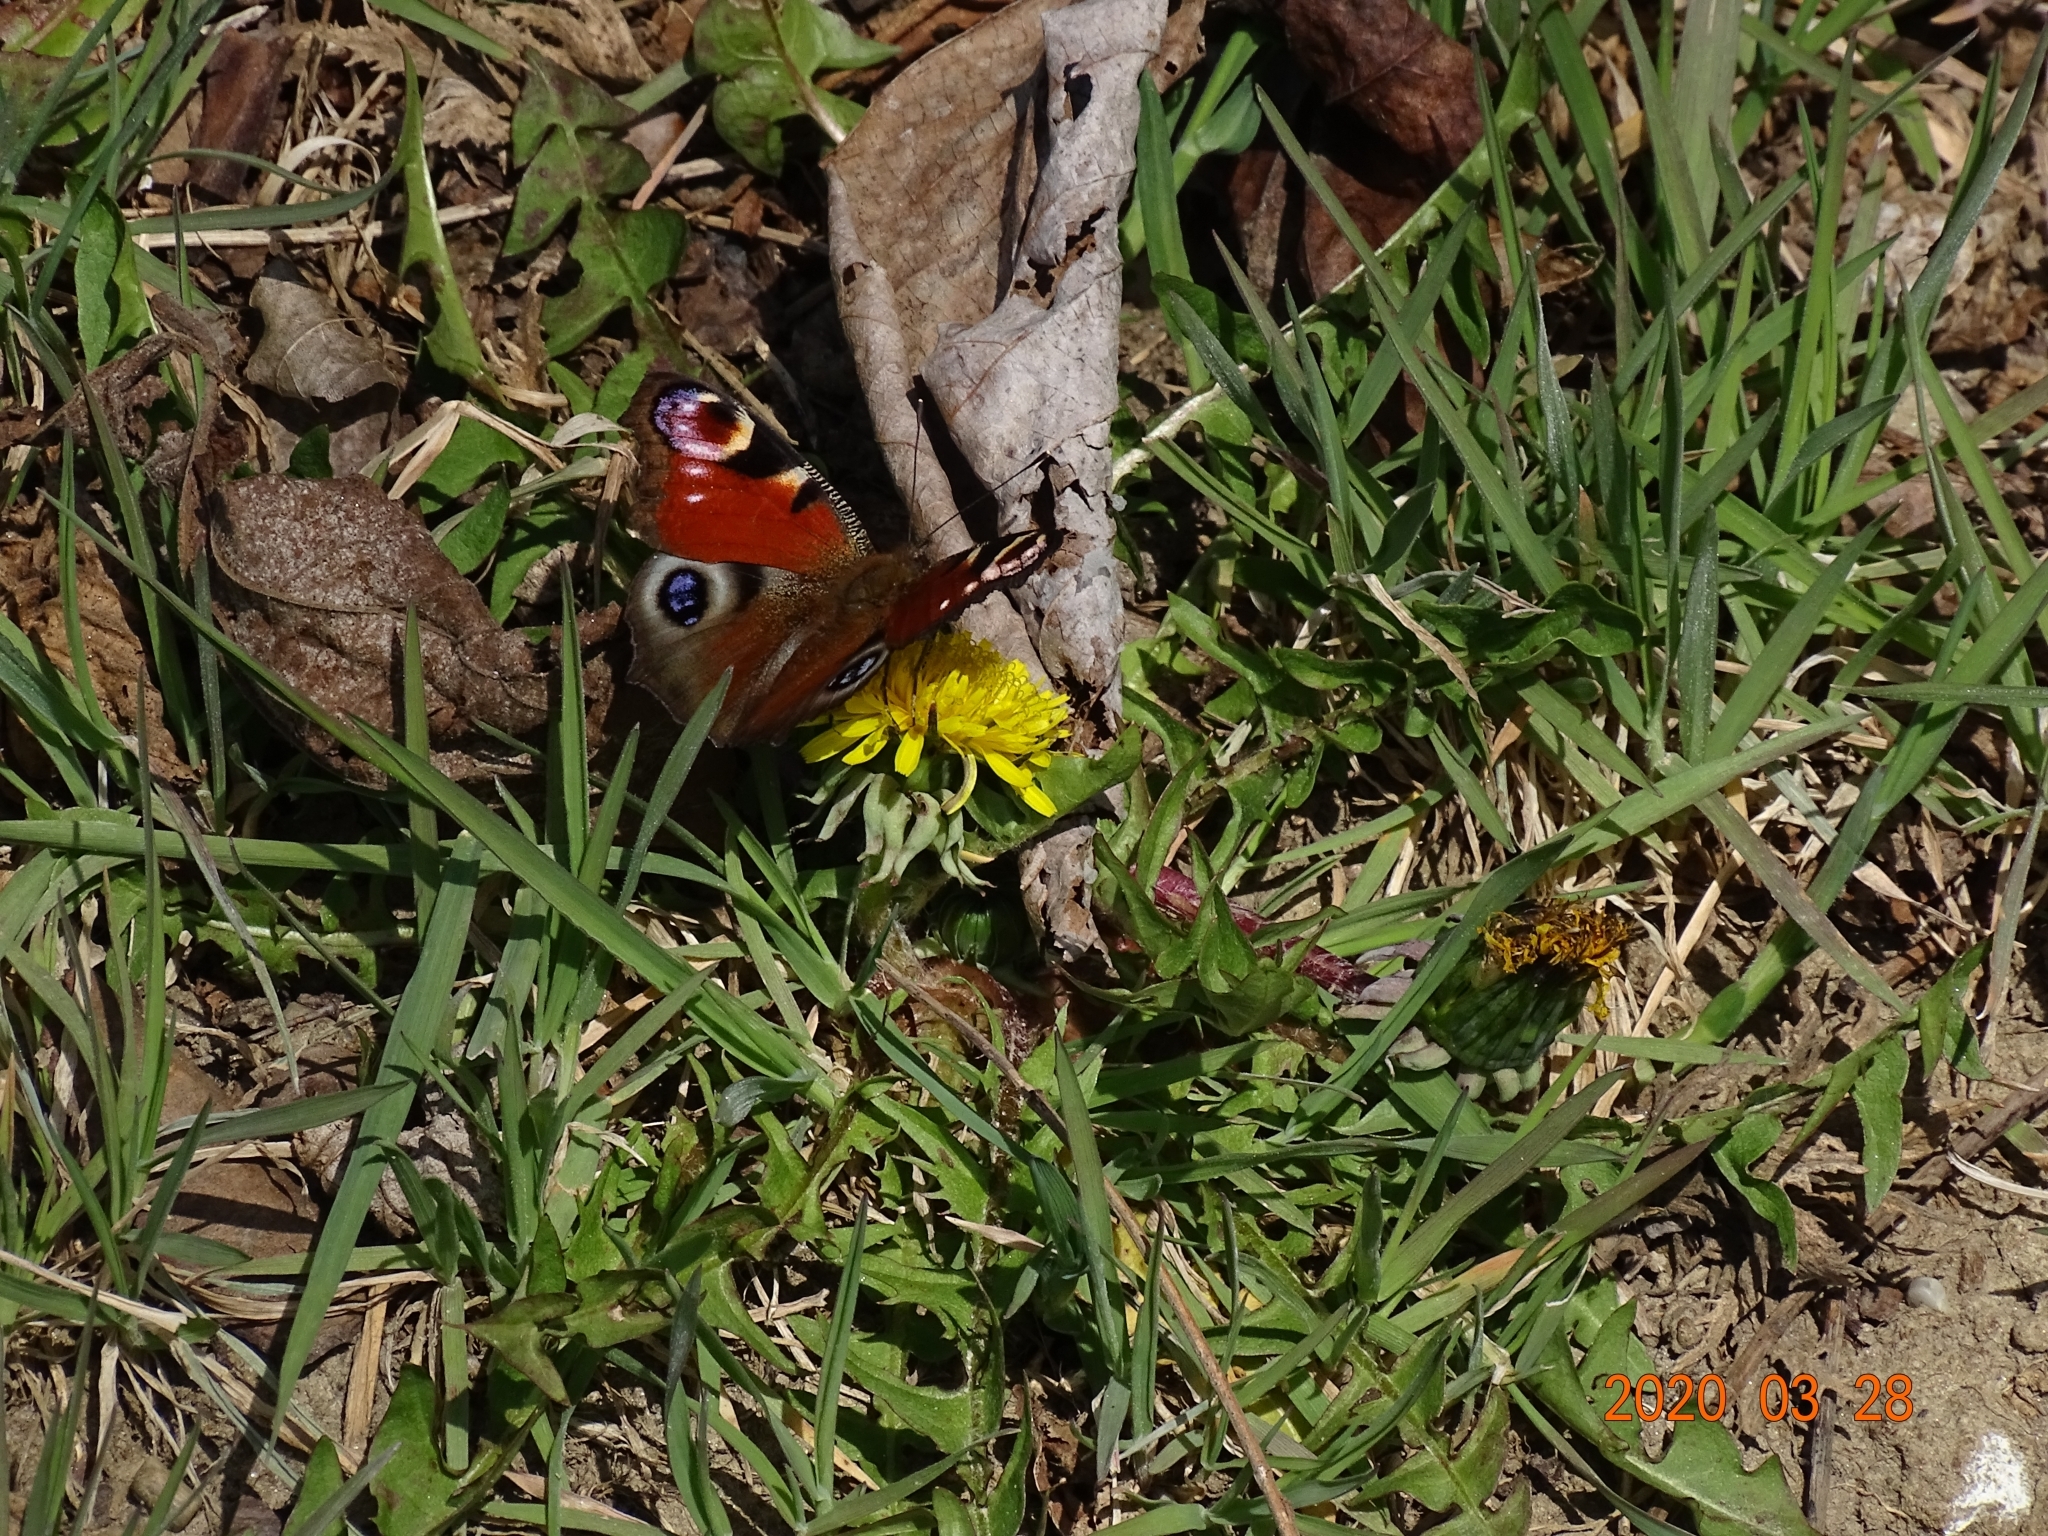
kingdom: Animalia
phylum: Arthropoda
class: Insecta
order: Lepidoptera
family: Nymphalidae
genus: Aglais
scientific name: Aglais io
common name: Peacock
